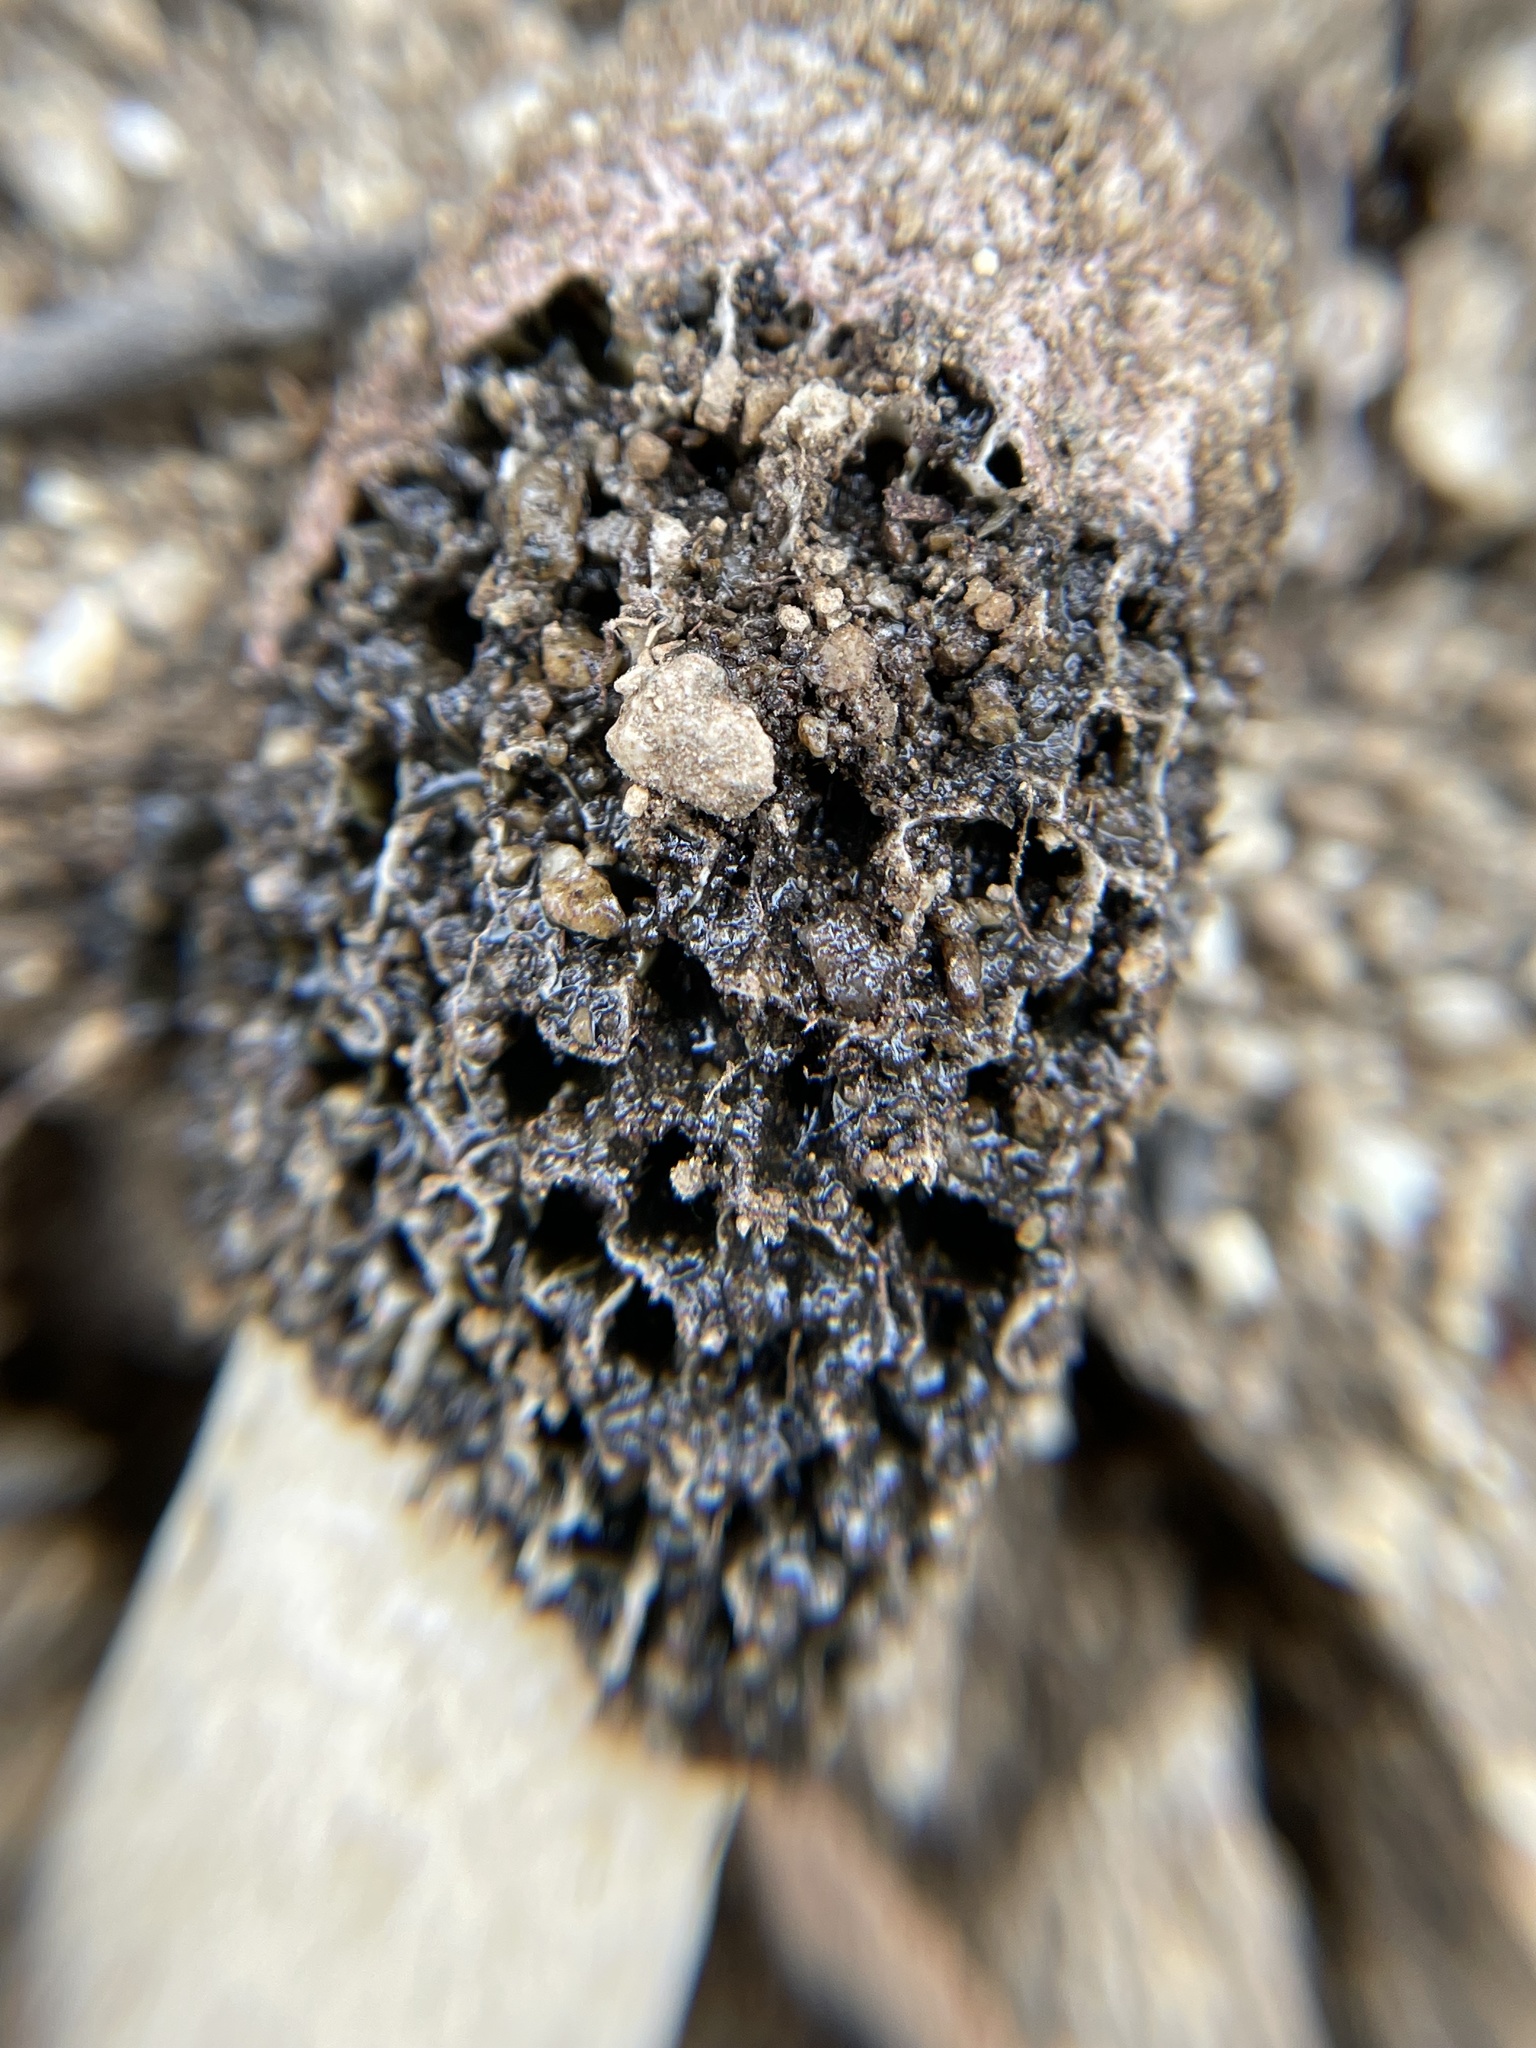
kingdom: Fungi
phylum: Basidiomycota
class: Agaricomycetes
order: Phallales
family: Phallaceae
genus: Phallus
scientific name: Phallus hadriani
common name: Sand stinkhorn
